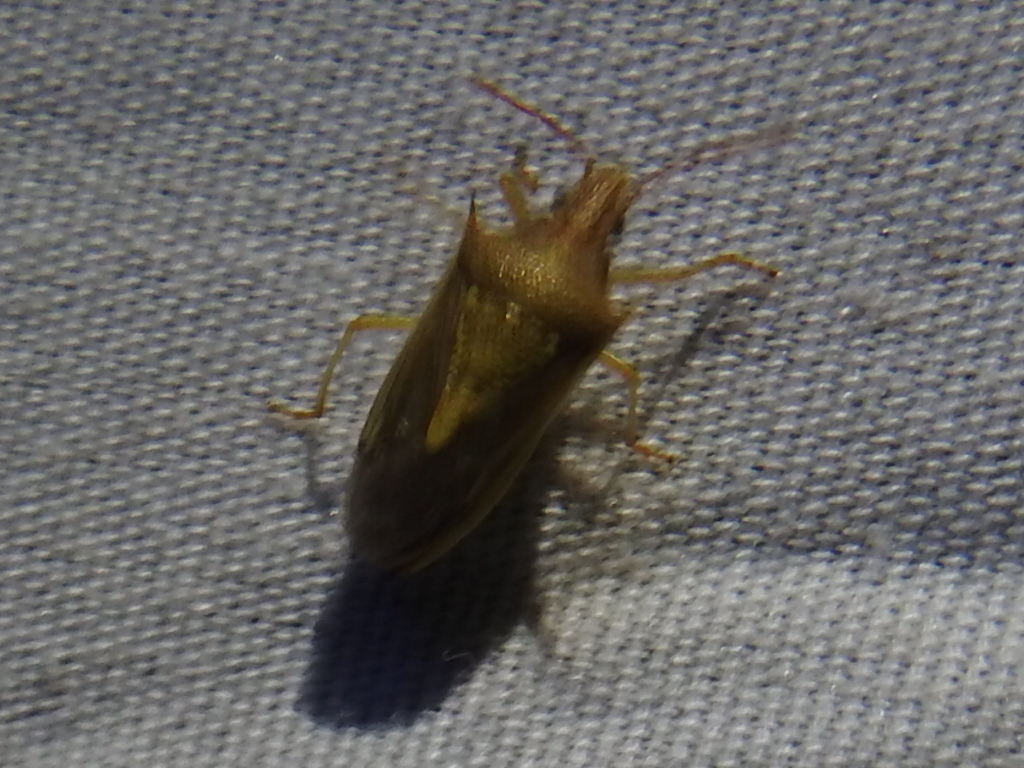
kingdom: Animalia
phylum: Arthropoda
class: Insecta
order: Hemiptera
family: Pentatomidae
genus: Oebalus
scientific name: Oebalus pugnax
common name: Rice stink bug
